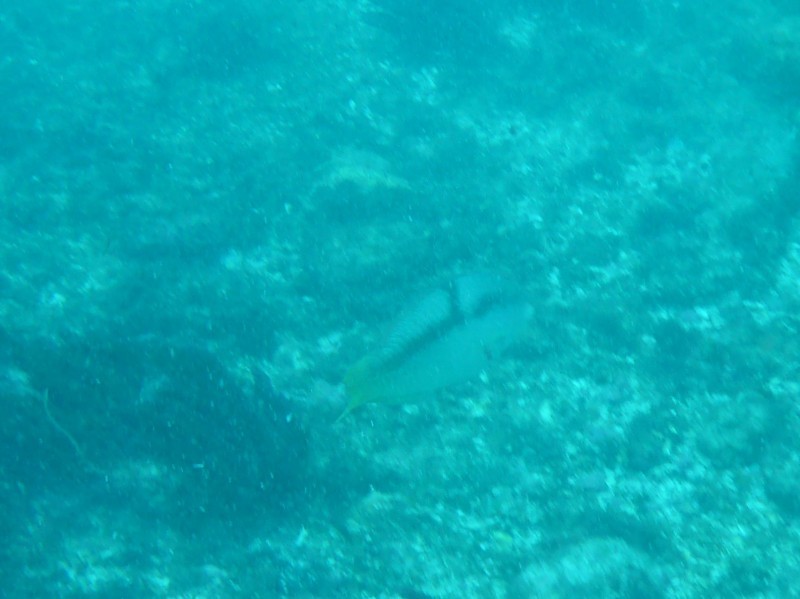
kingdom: Animalia
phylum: Chordata
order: Perciformes
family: Labridae
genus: Halichoeres
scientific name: Halichoeres nicholsi
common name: Spinster wrasse
